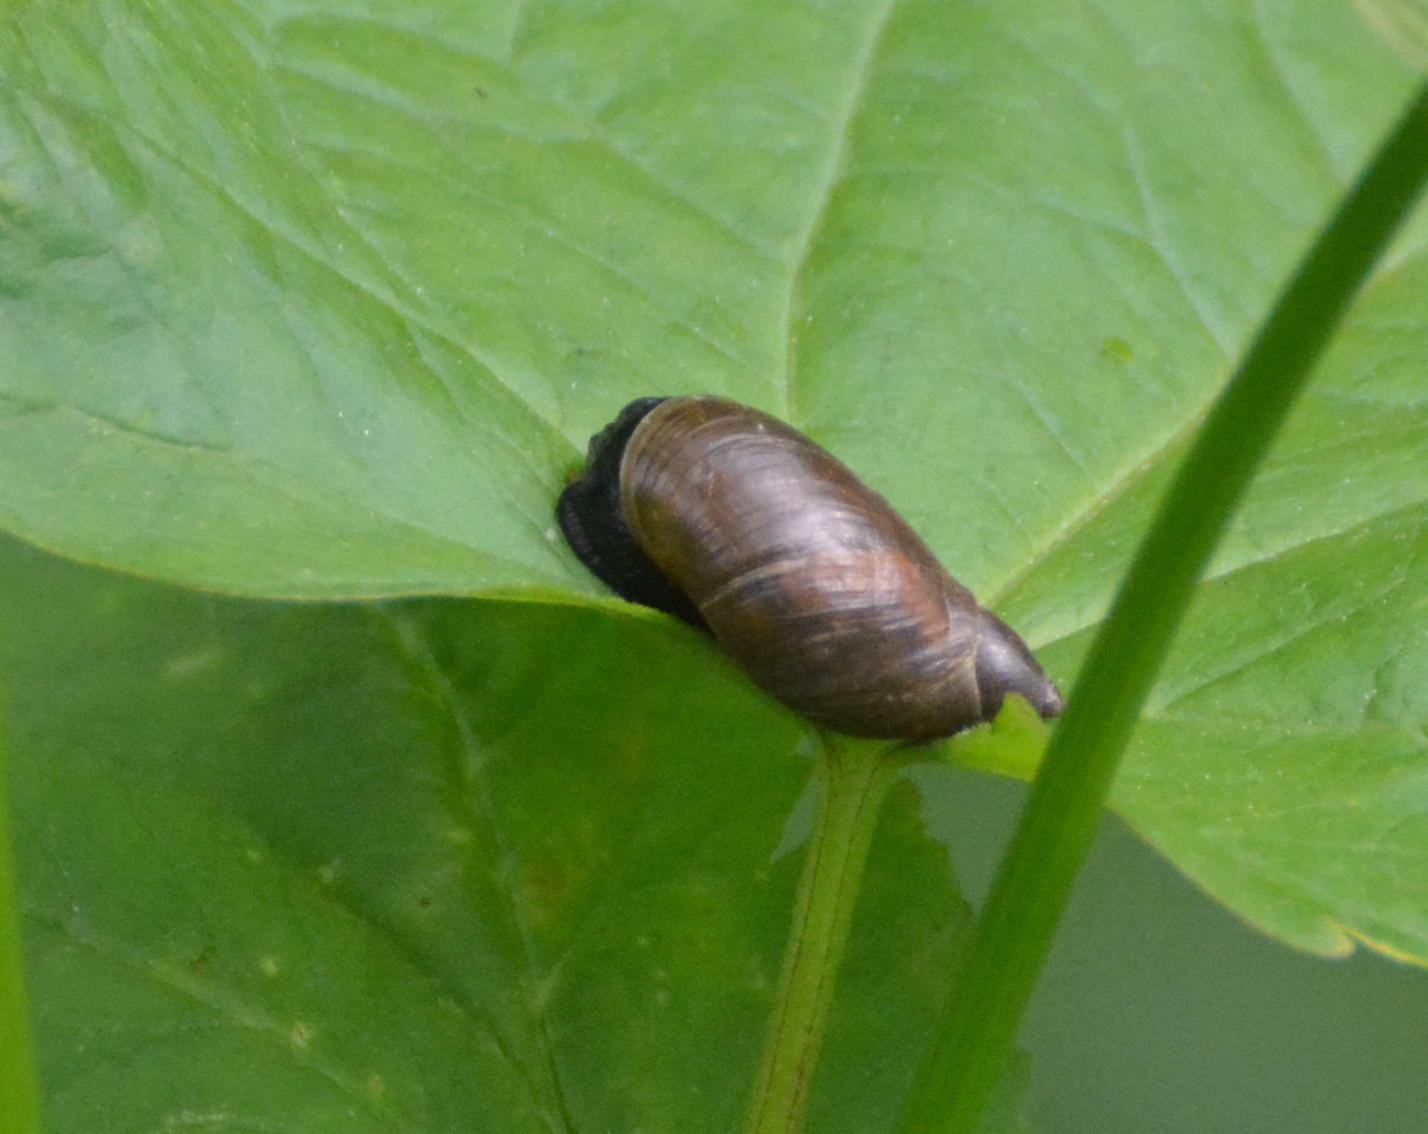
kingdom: Animalia
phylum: Mollusca
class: Gastropoda
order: Stylommatophora
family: Succineidae
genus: Succinea
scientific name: Succinea putris
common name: European ambersnail
